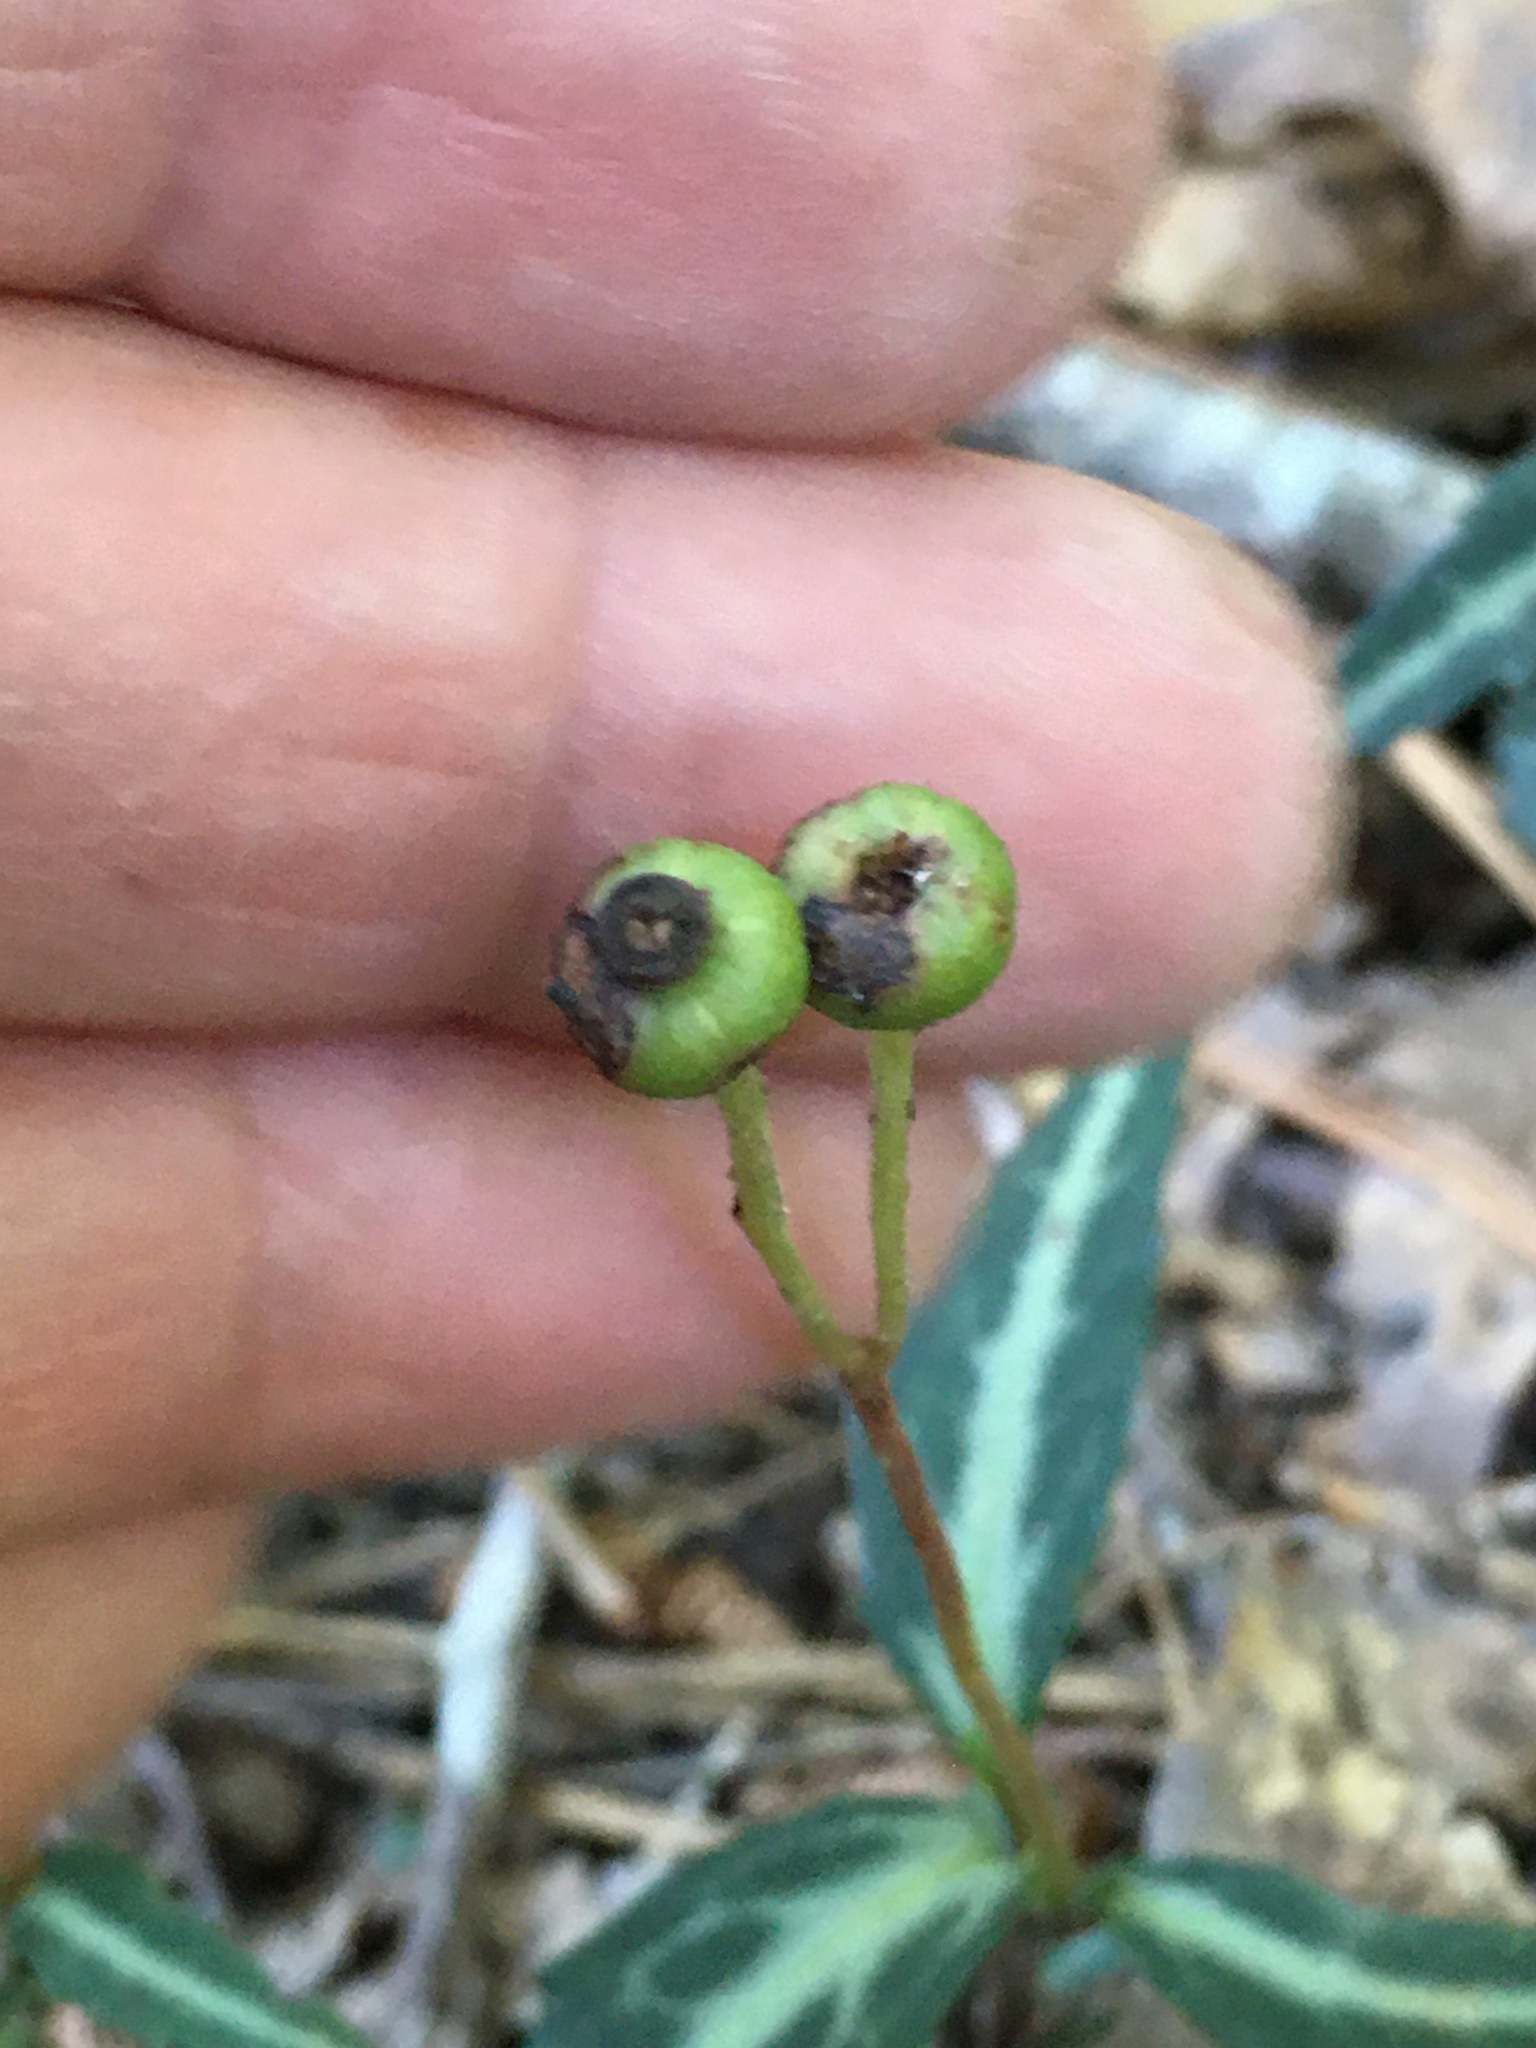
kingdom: Plantae
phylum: Tracheophyta
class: Magnoliopsida
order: Ericales
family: Ericaceae
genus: Chimaphila
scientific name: Chimaphila maculata
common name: Spotted pipsissewa
